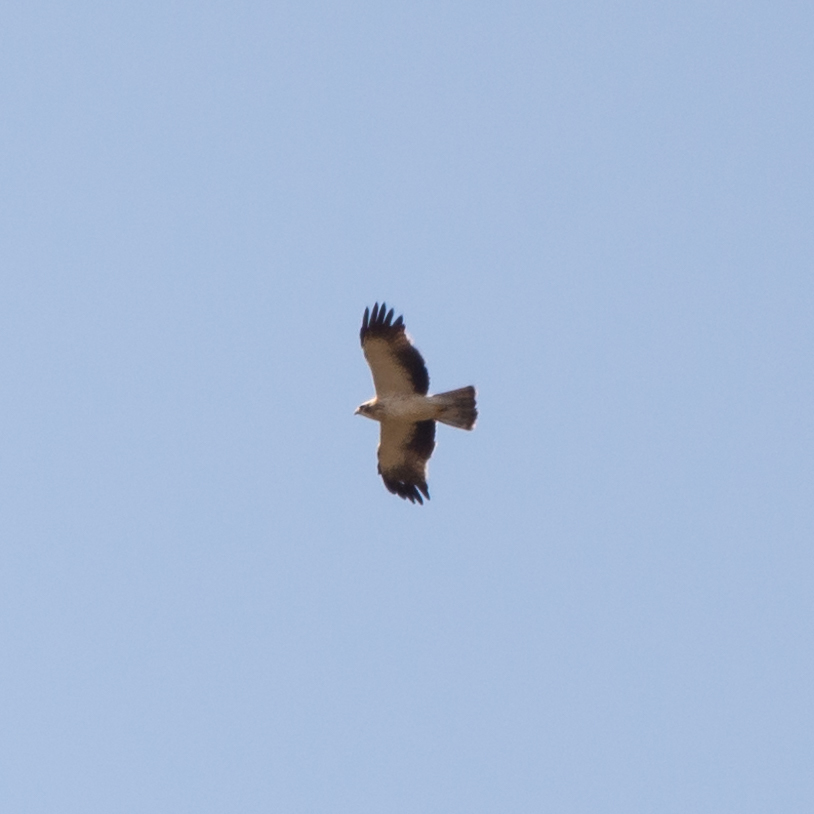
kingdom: Animalia
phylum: Chordata
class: Aves
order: Accipitriformes
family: Accipitridae
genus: Hieraaetus
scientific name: Hieraaetus pennatus
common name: Booted eagle
